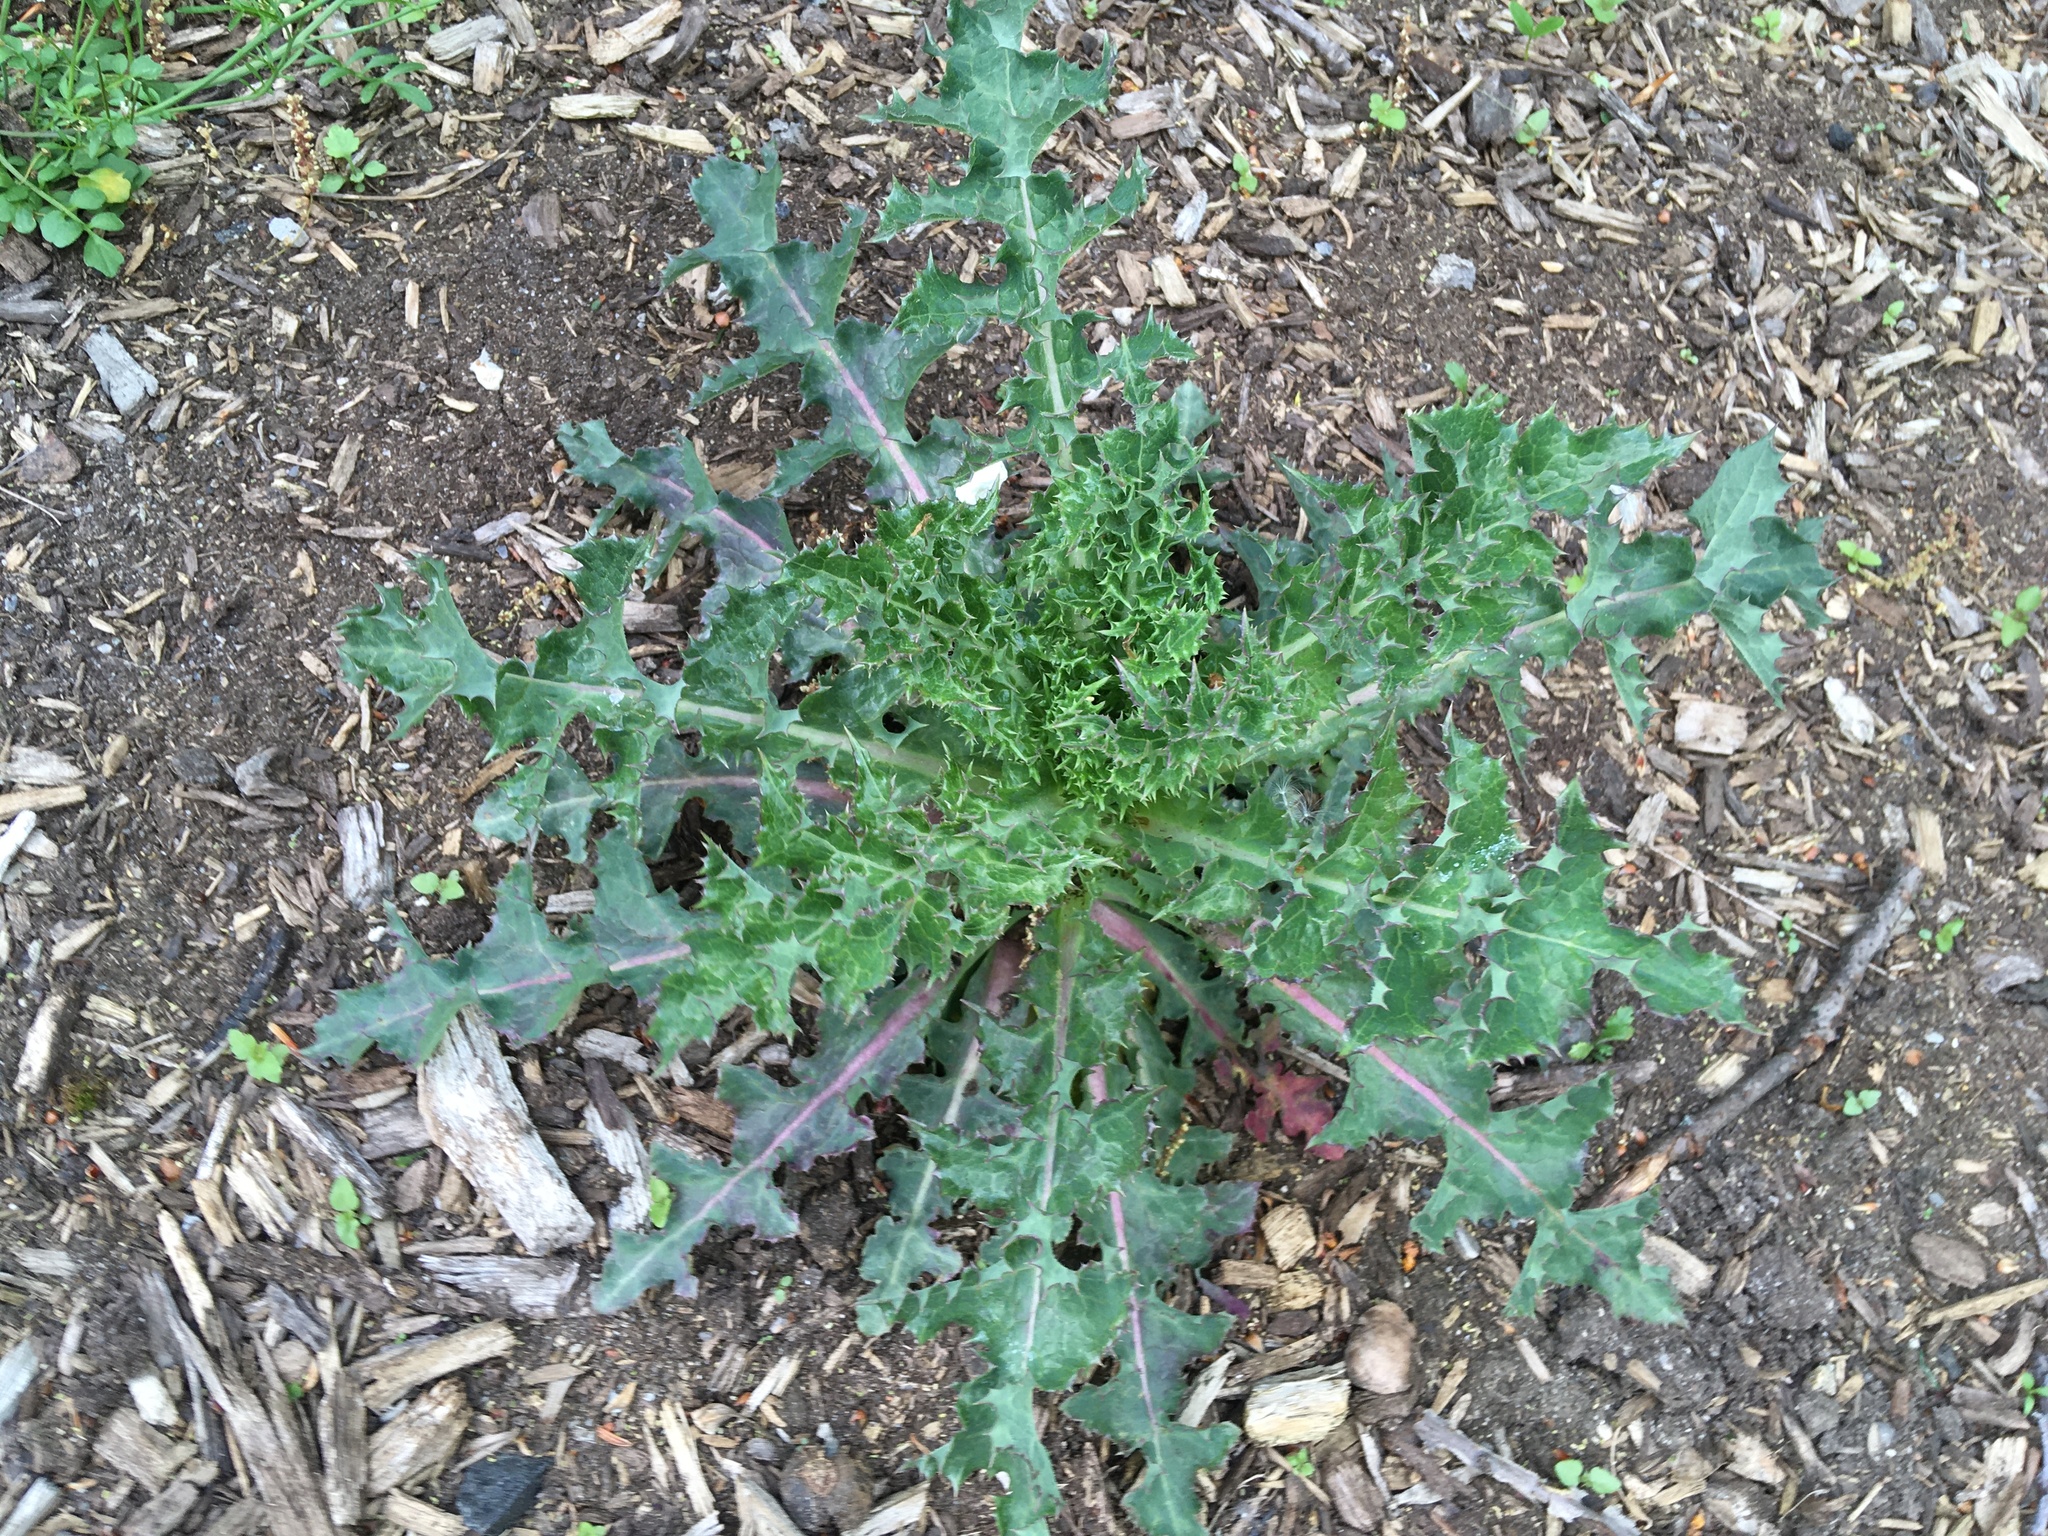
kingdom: Plantae
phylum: Tracheophyta
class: Magnoliopsida
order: Asterales
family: Asteraceae
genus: Sonchus
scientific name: Sonchus asper
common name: Prickly sow-thistle
